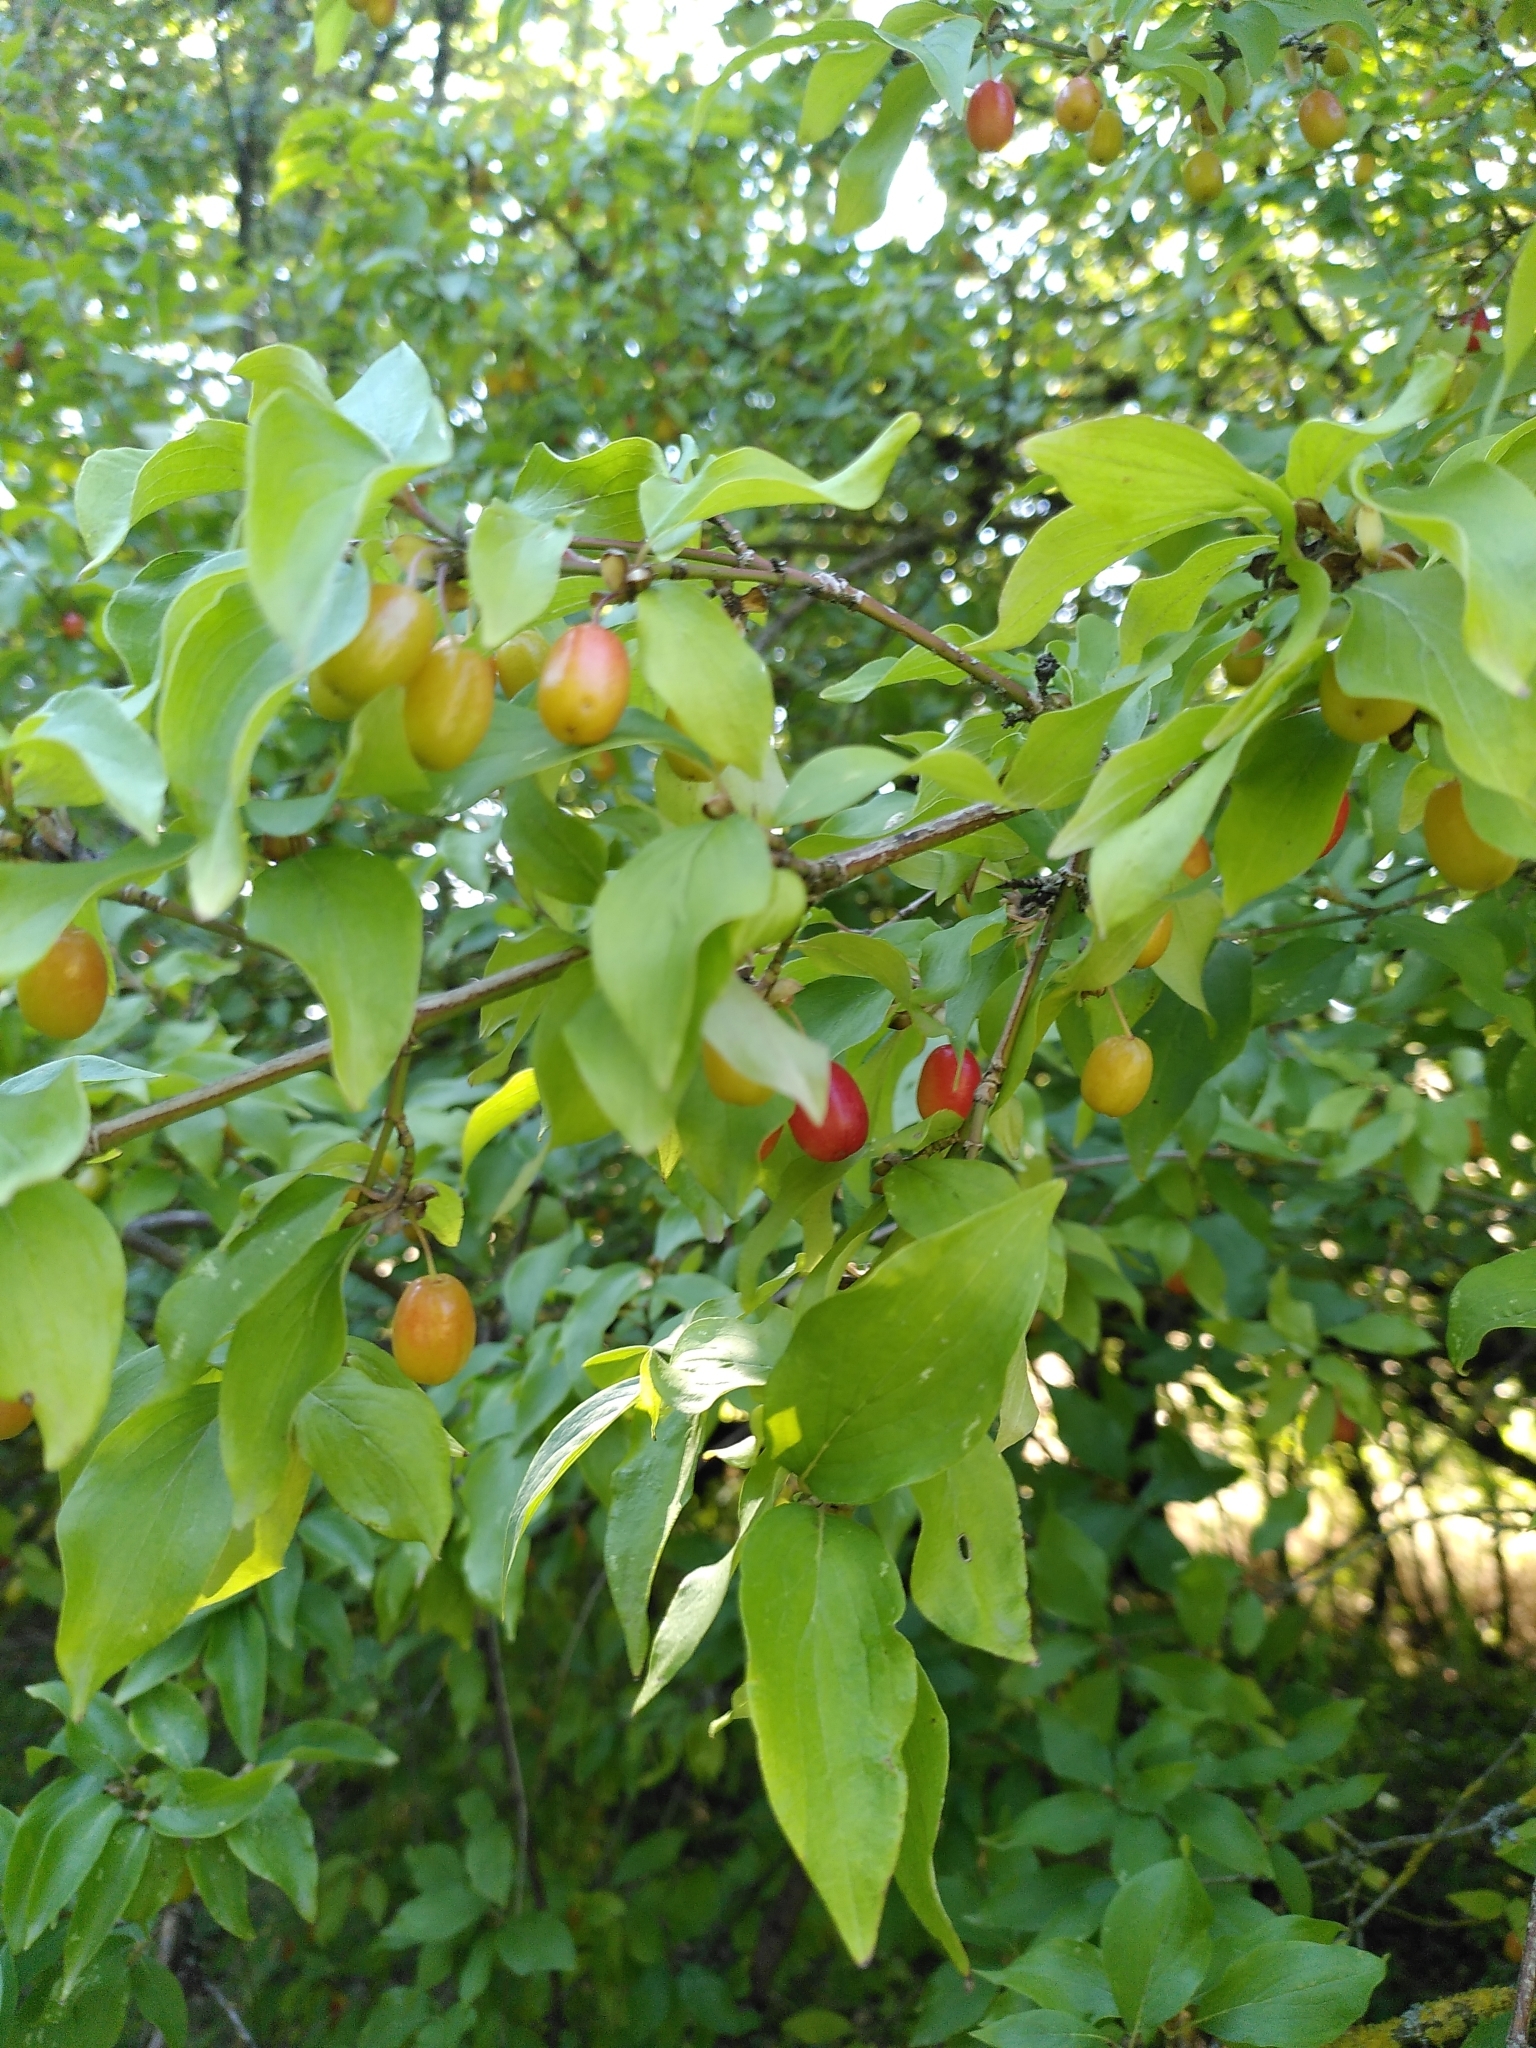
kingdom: Plantae
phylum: Tracheophyta
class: Magnoliopsida
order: Cornales
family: Cornaceae
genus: Cornus
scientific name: Cornus mas
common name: Cornelian-cherry
